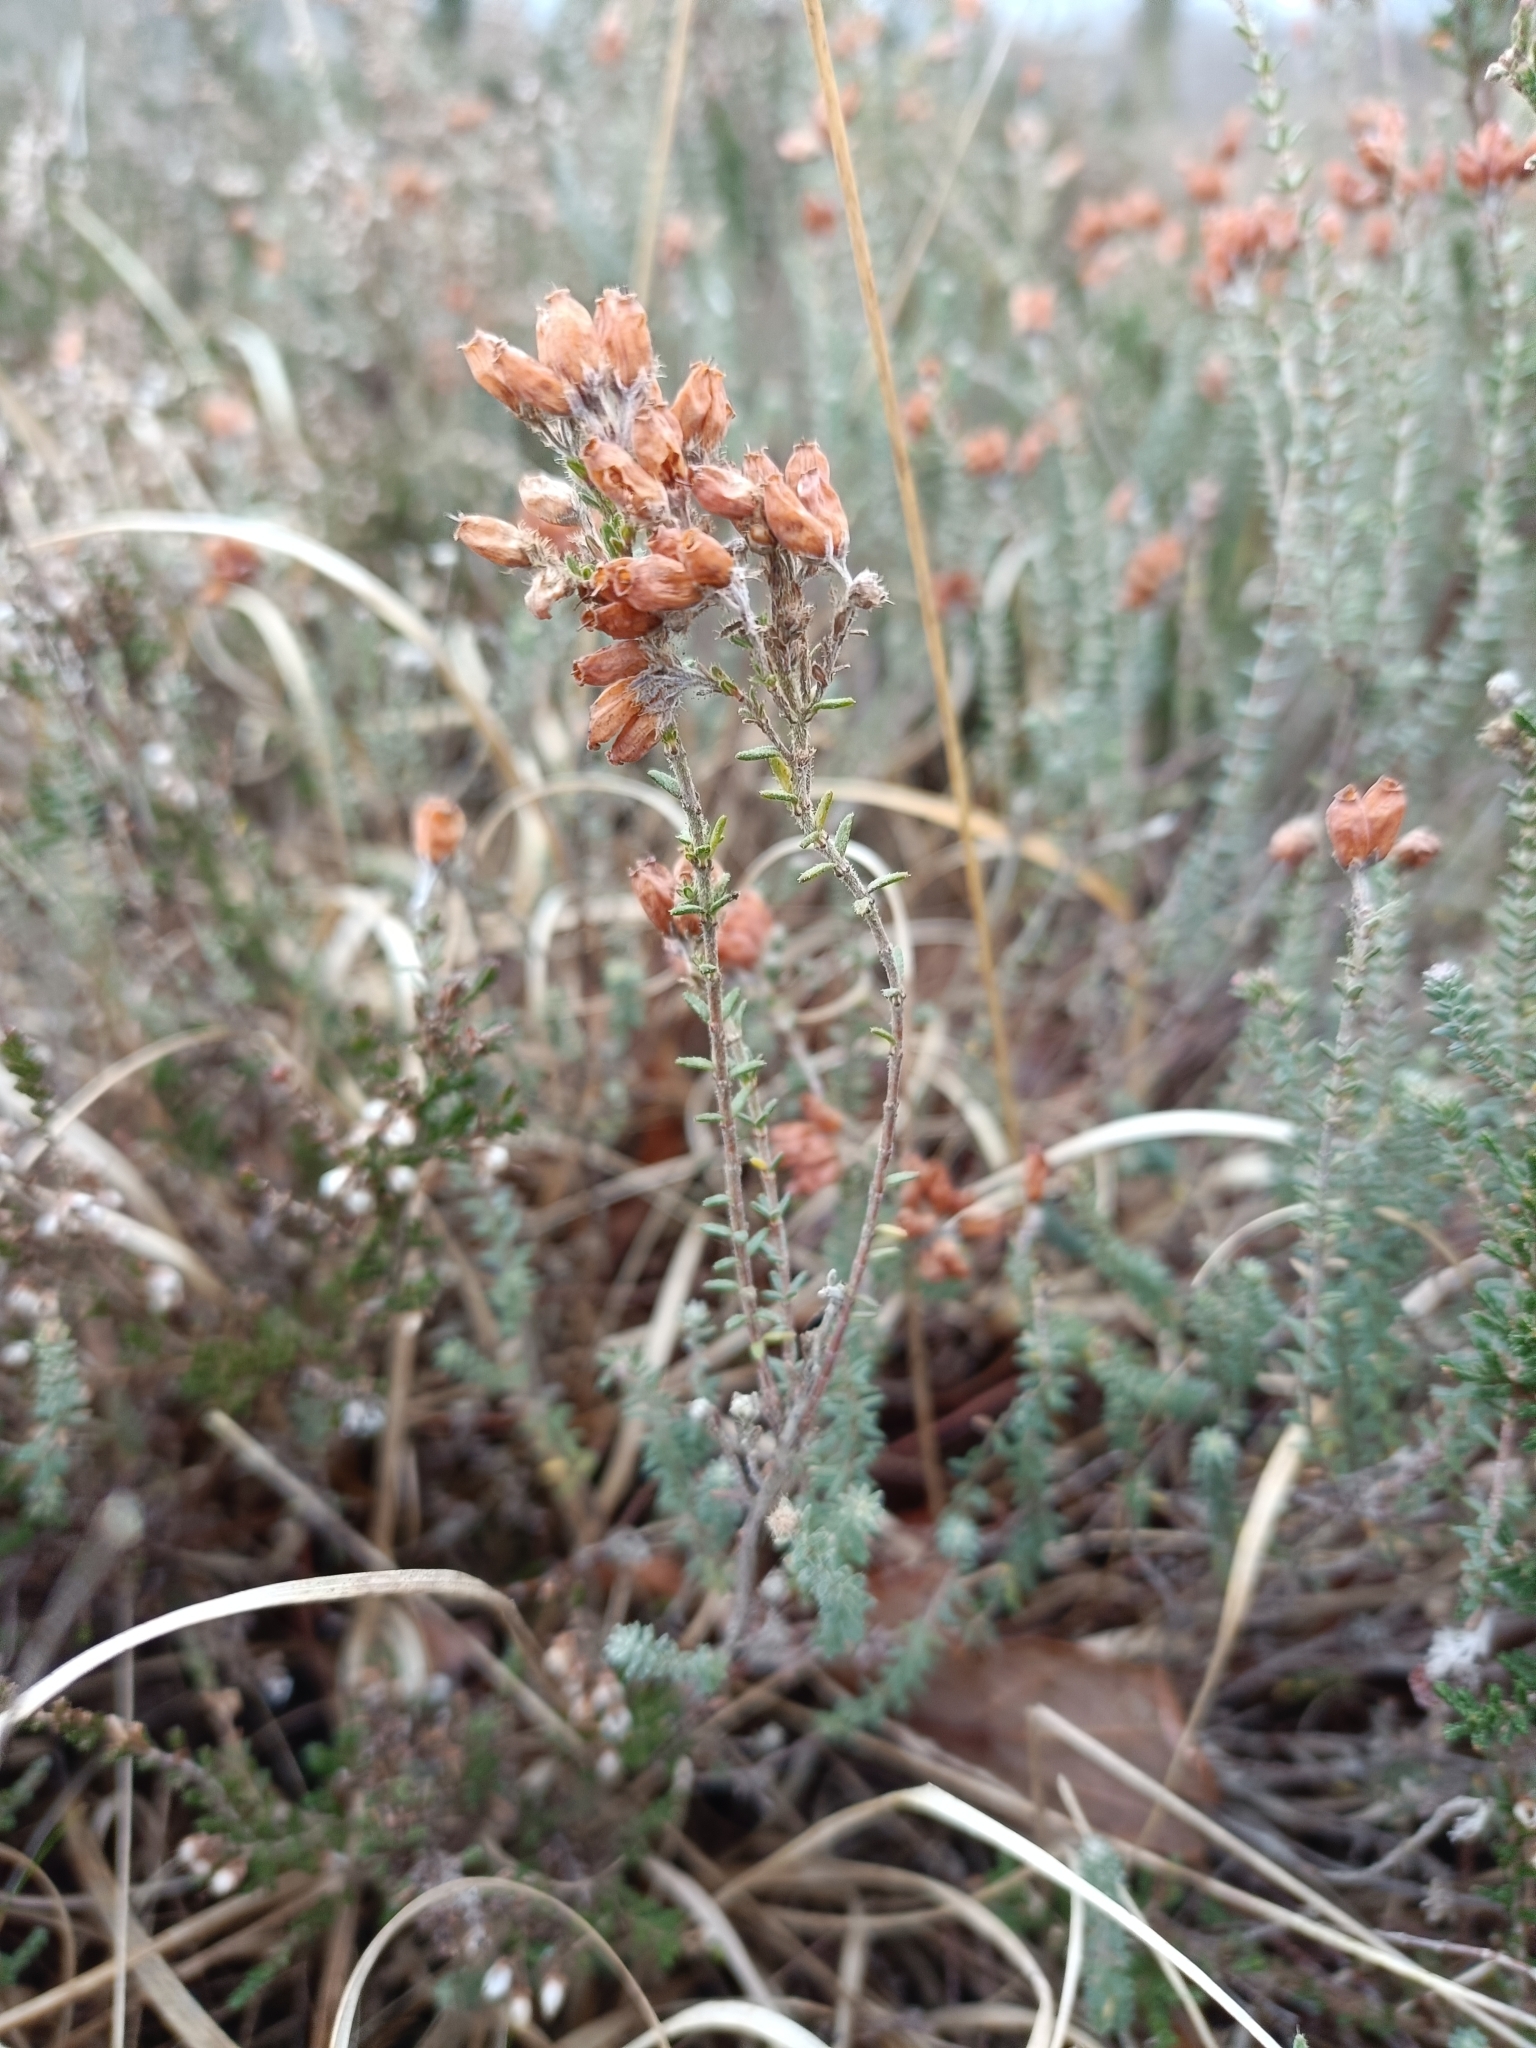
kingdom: Plantae
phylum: Tracheophyta
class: Magnoliopsida
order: Ericales
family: Ericaceae
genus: Erica
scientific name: Erica tetralix
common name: Cross-leaved heath
